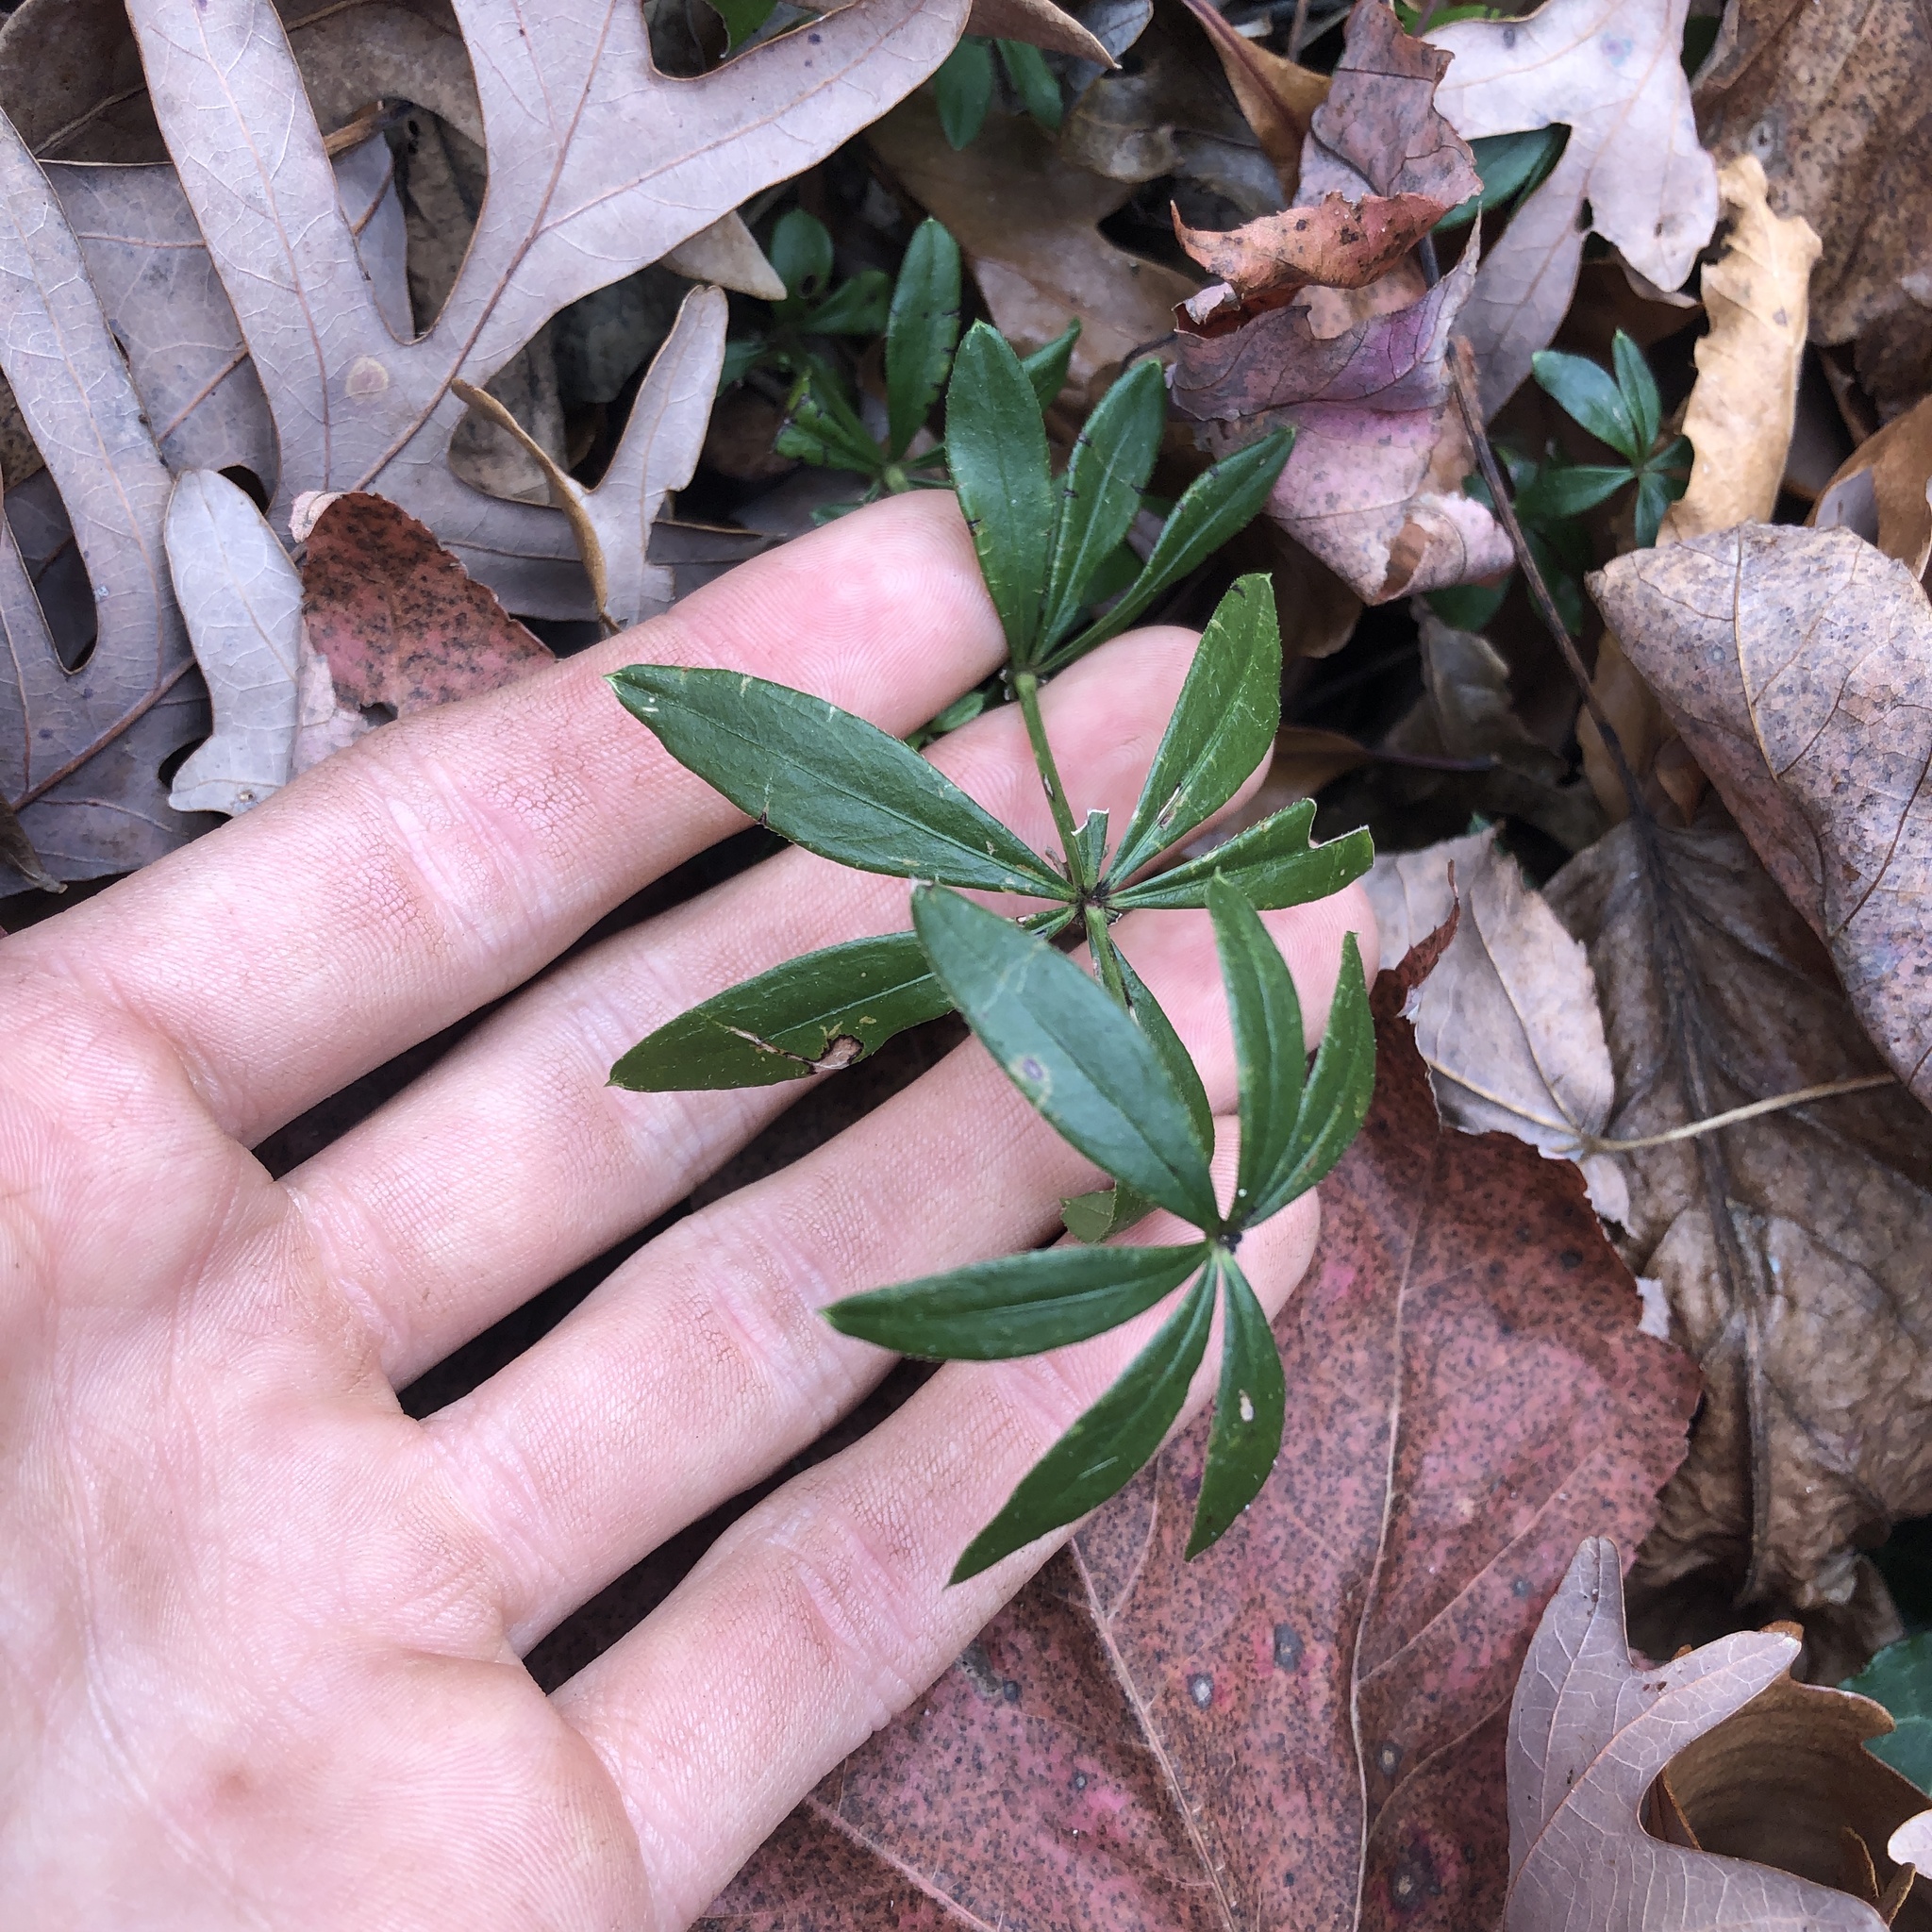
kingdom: Plantae
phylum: Tracheophyta
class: Magnoliopsida
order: Gentianales
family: Rubiaceae
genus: Galium
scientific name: Galium odoratum
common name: Sweet woodruff
